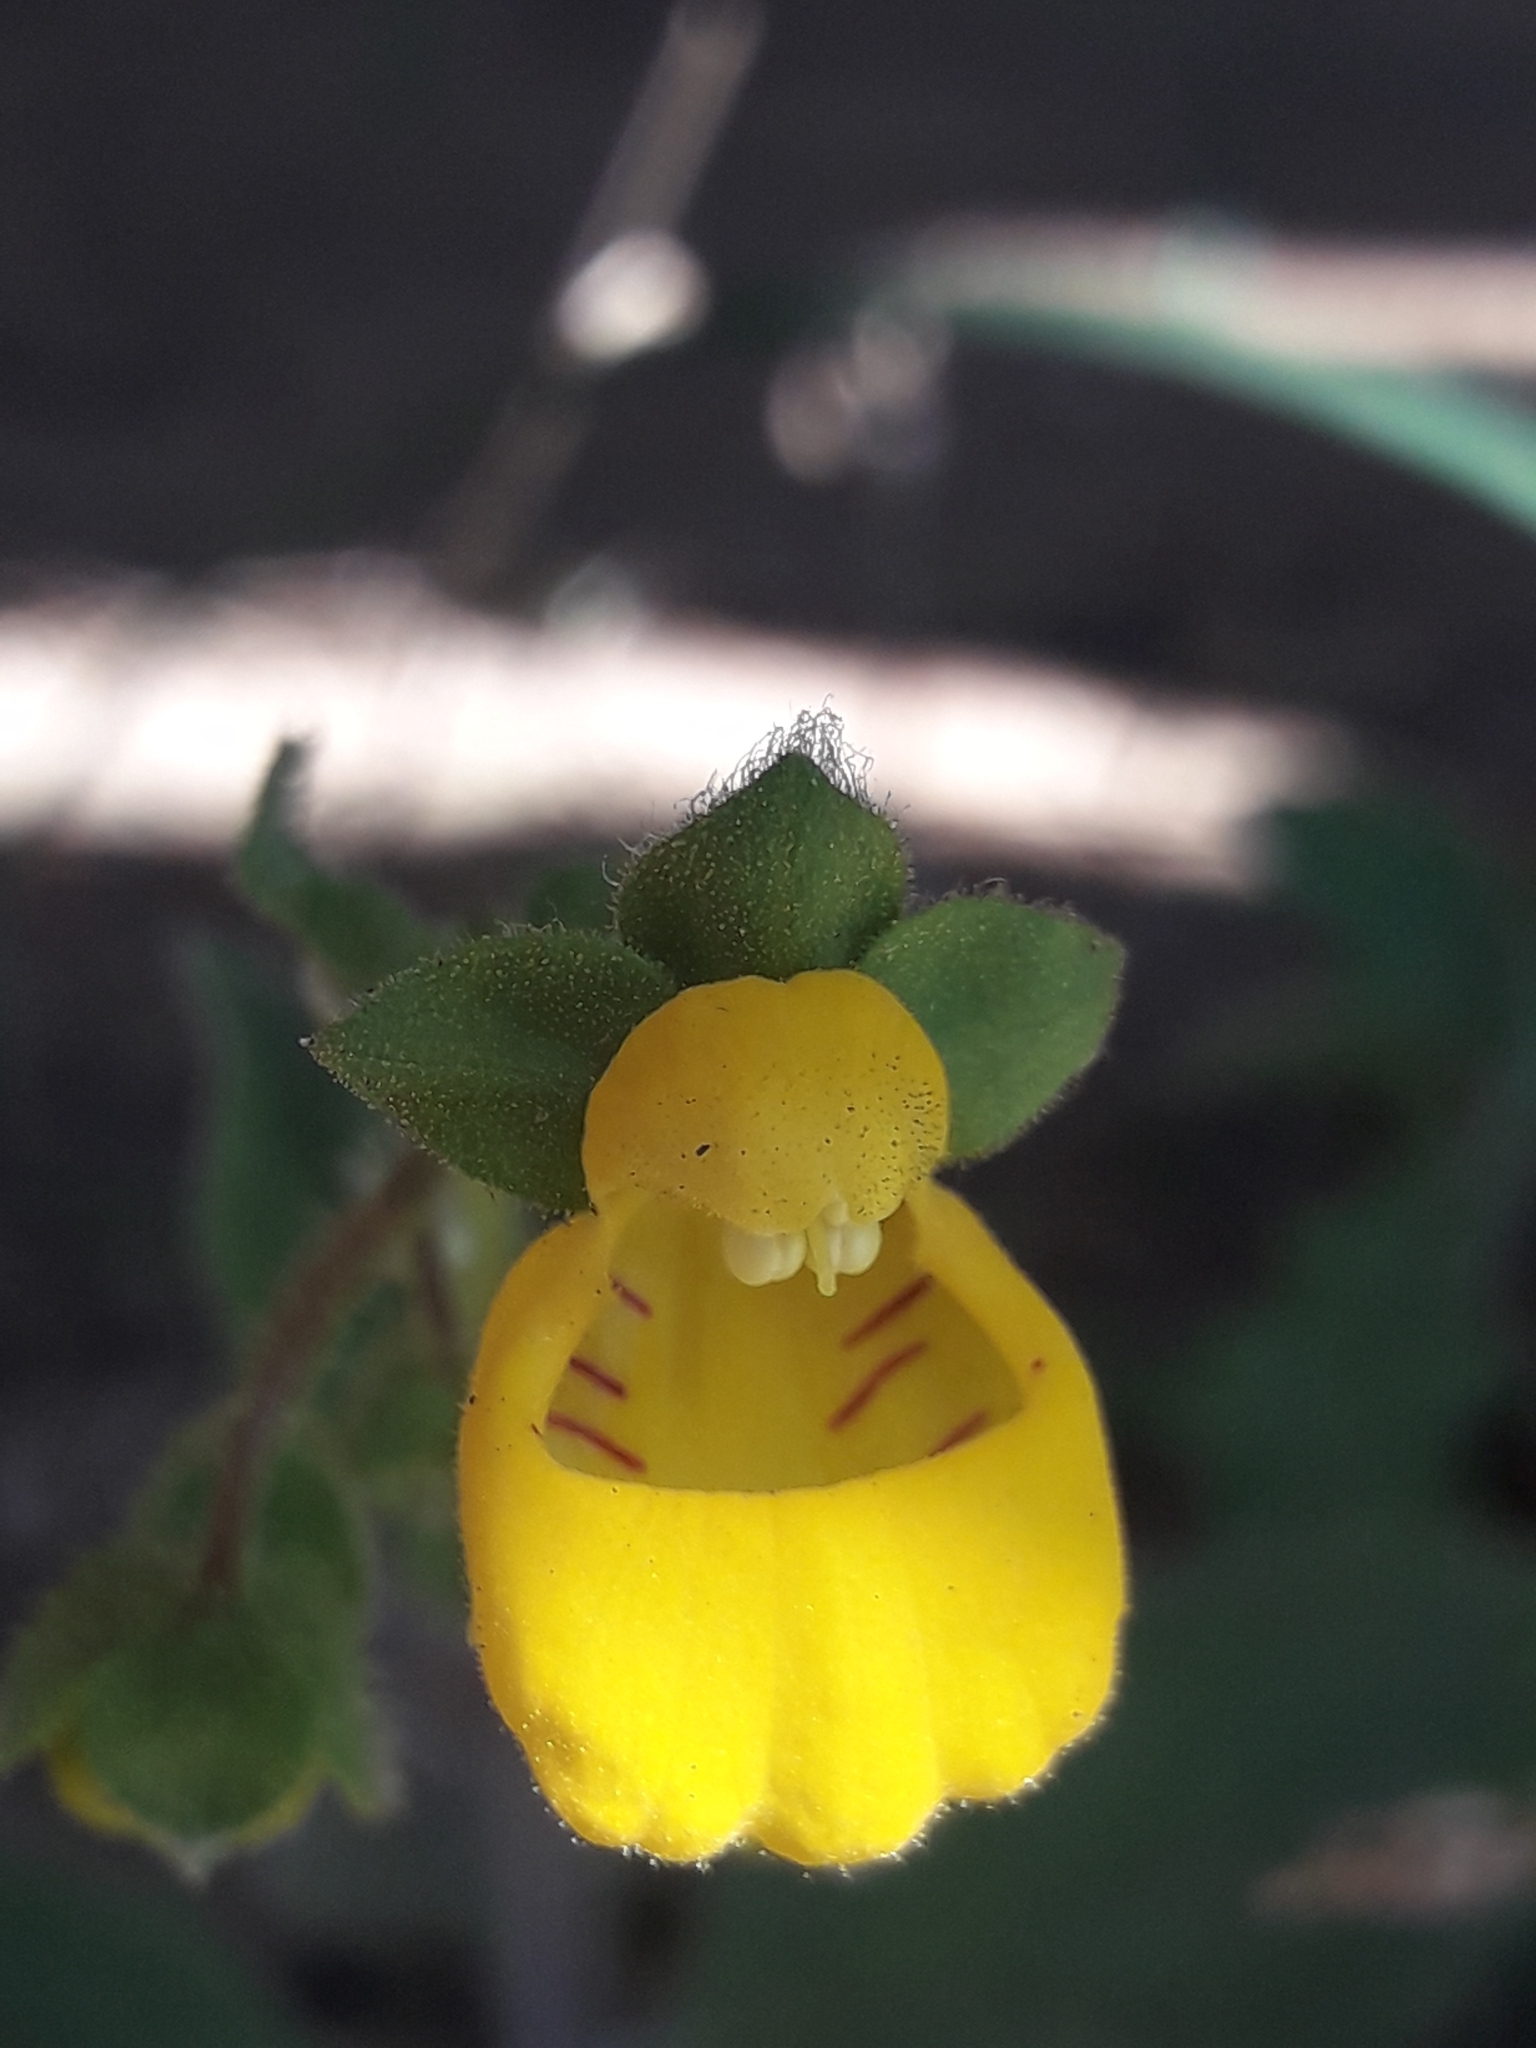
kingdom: Plantae
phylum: Tracheophyta
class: Magnoliopsida
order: Lamiales
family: Calceolariaceae
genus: Calceolaria
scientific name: Calceolaria corymbosa
